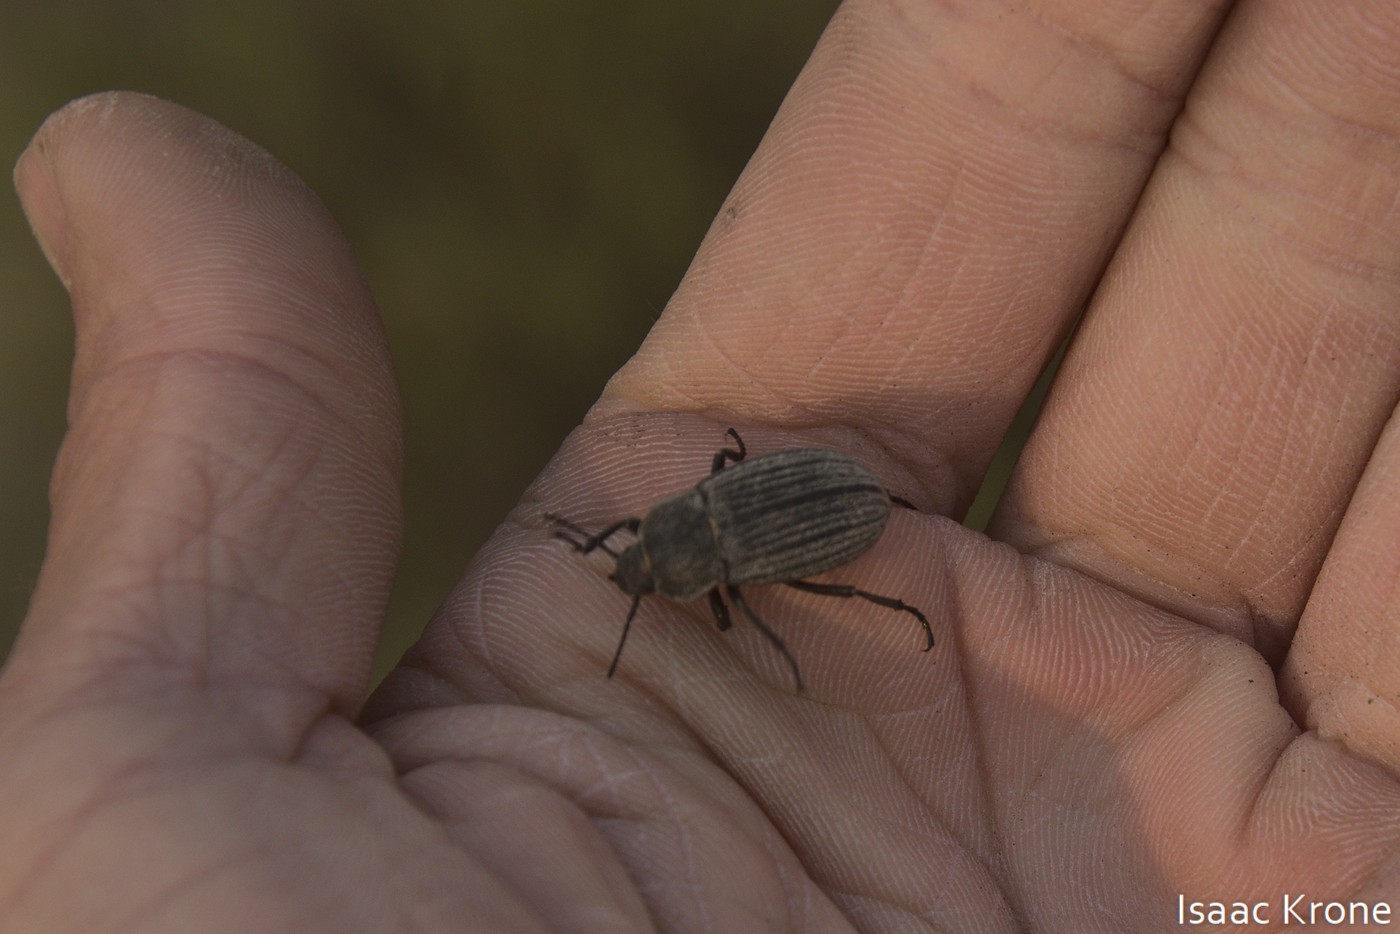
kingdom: Animalia
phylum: Arthropoda
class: Insecta
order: Coleoptera
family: Tenebrionidae
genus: Eleodes
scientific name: Eleodes tricostata
